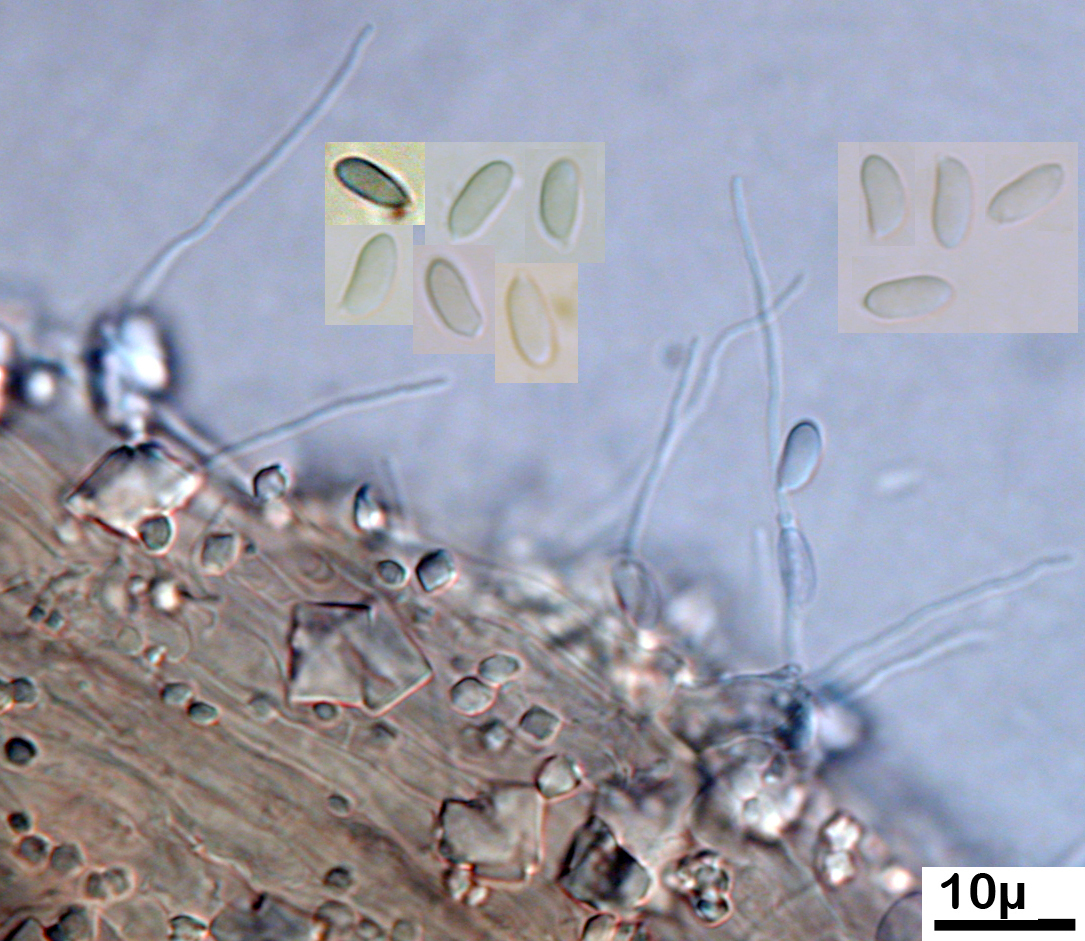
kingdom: Fungi
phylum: Basidiomycota
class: Agaricomycetes
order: Agaricales
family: Typhulaceae
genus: Typhula
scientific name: Typhula setipes
